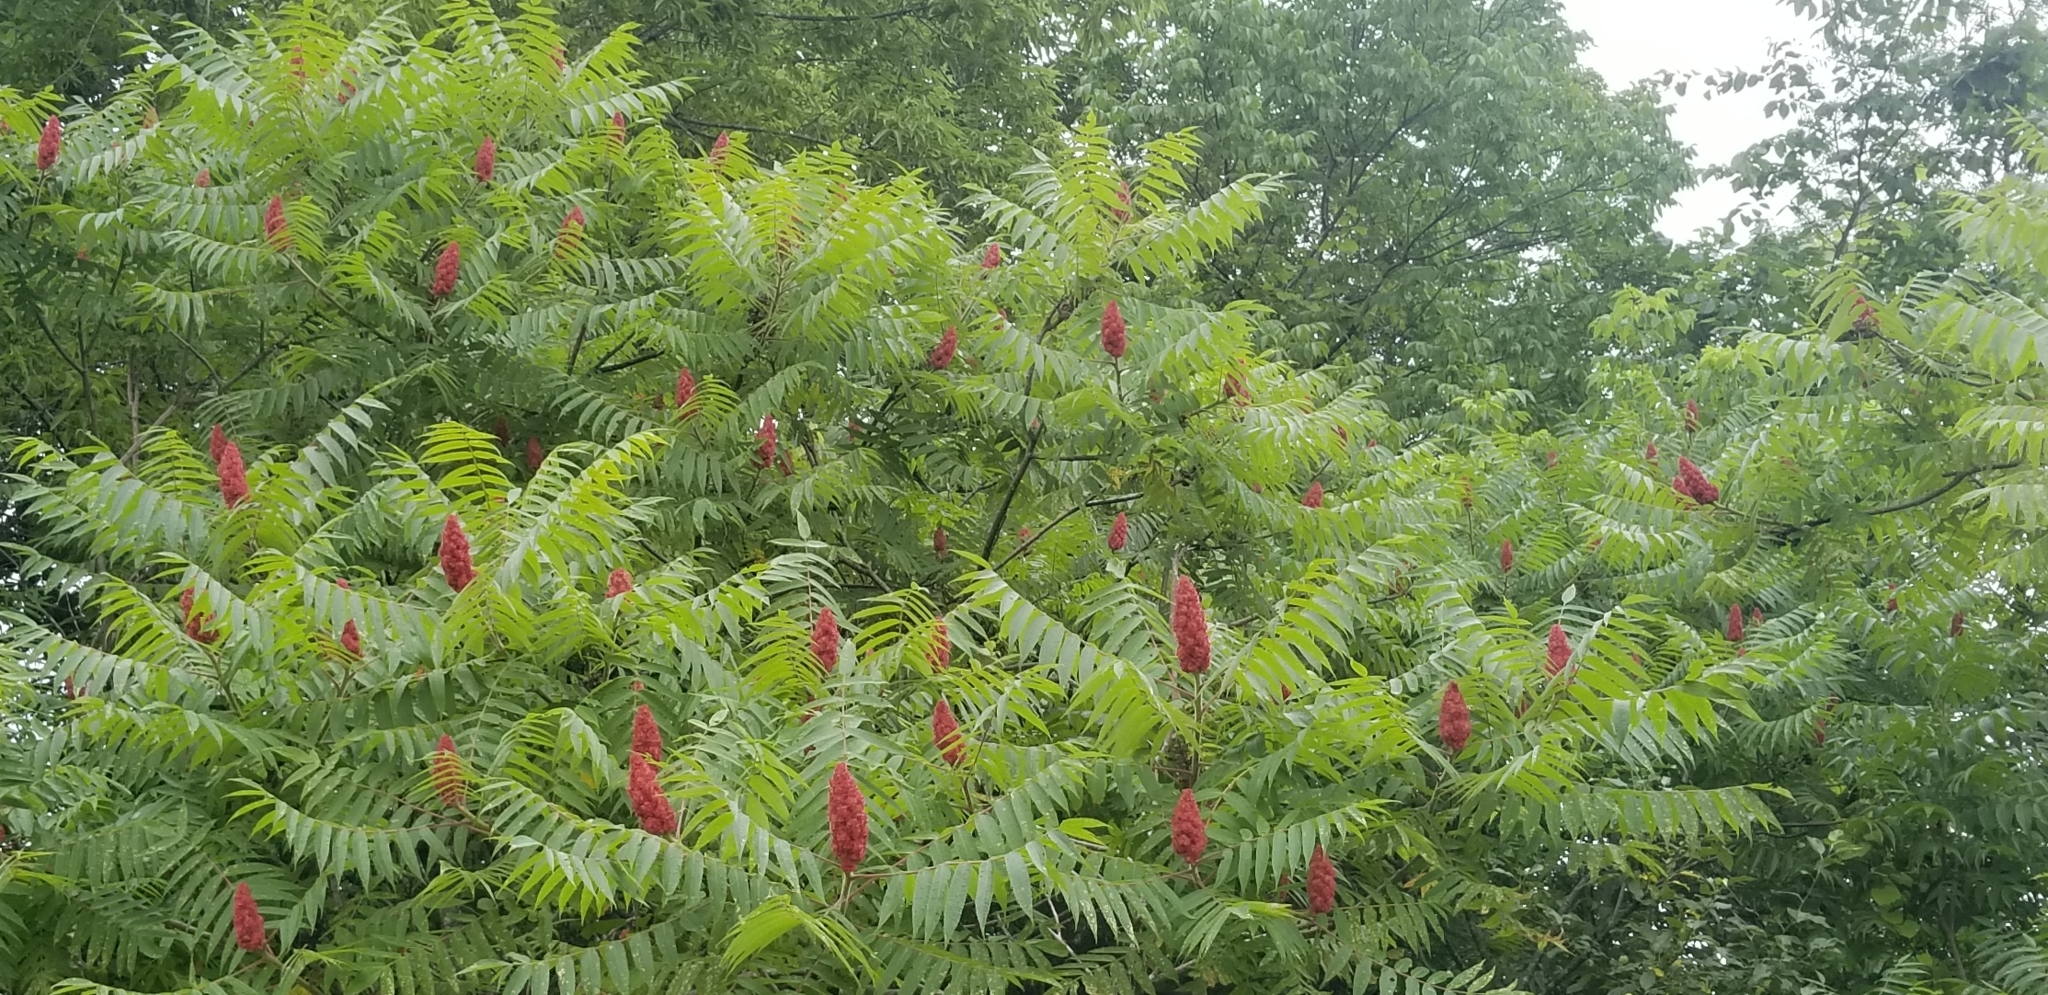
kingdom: Plantae
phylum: Tracheophyta
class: Magnoliopsida
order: Sapindales
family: Anacardiaceae
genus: Rhus
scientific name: Rhus typhina
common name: Staghorn sumac
